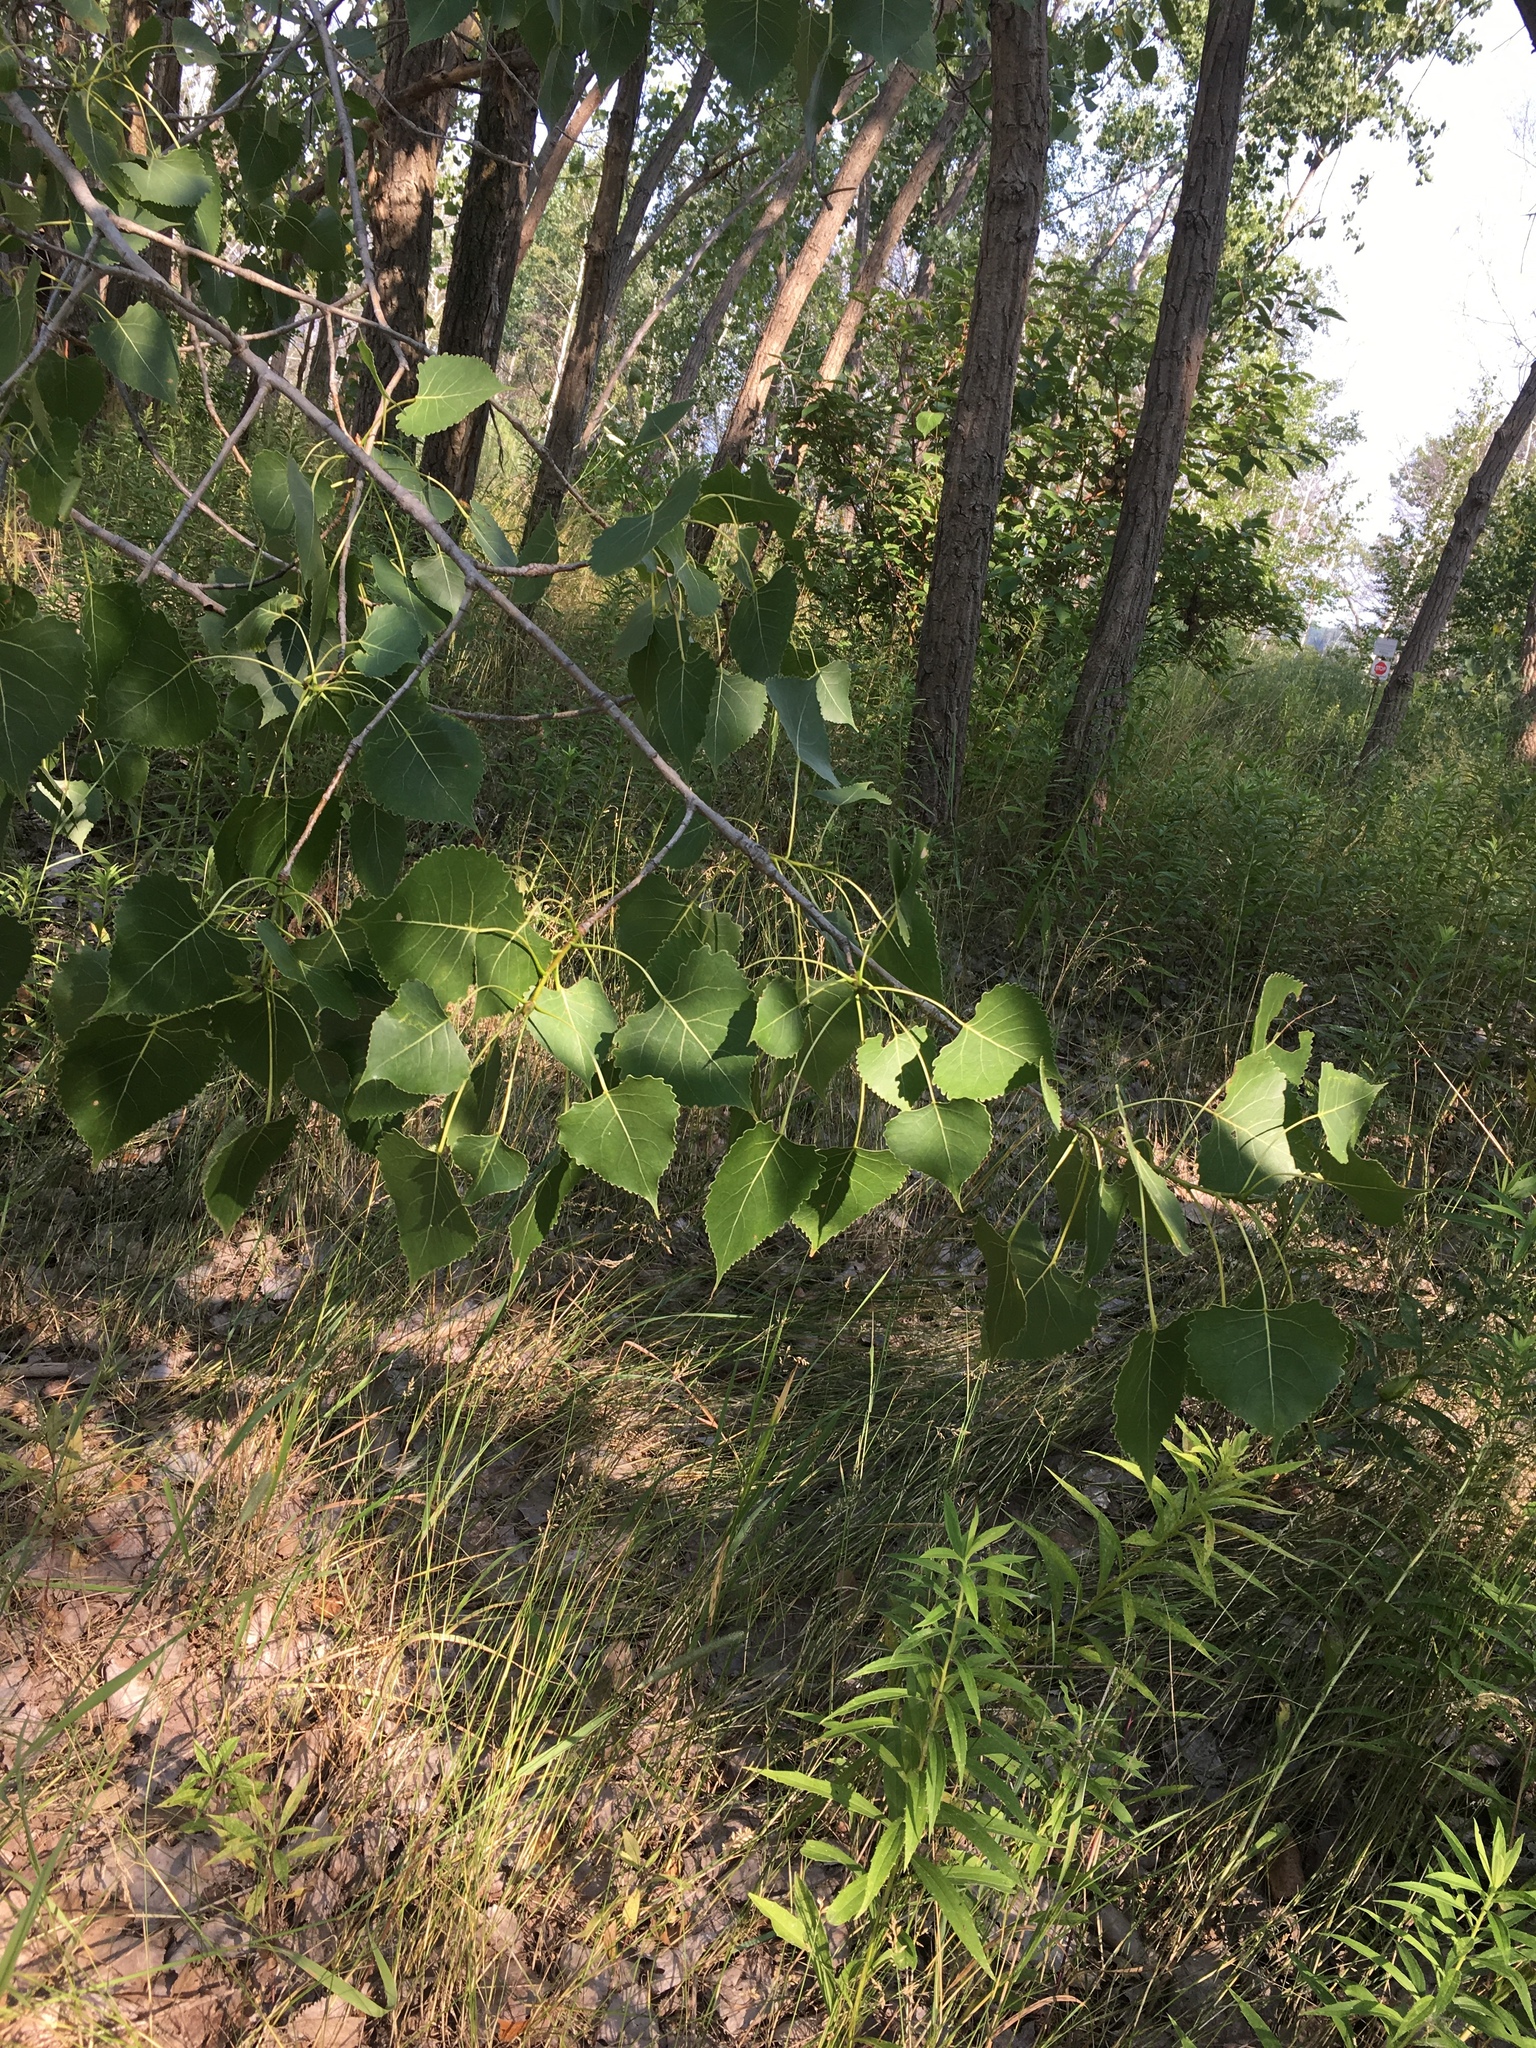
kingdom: Plantae
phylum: Tracheophyta
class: Magnoliopsida
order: Malpighiales
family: Salicaceae
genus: Populus
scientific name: Populus deltoides
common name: Eastern cottonwood
